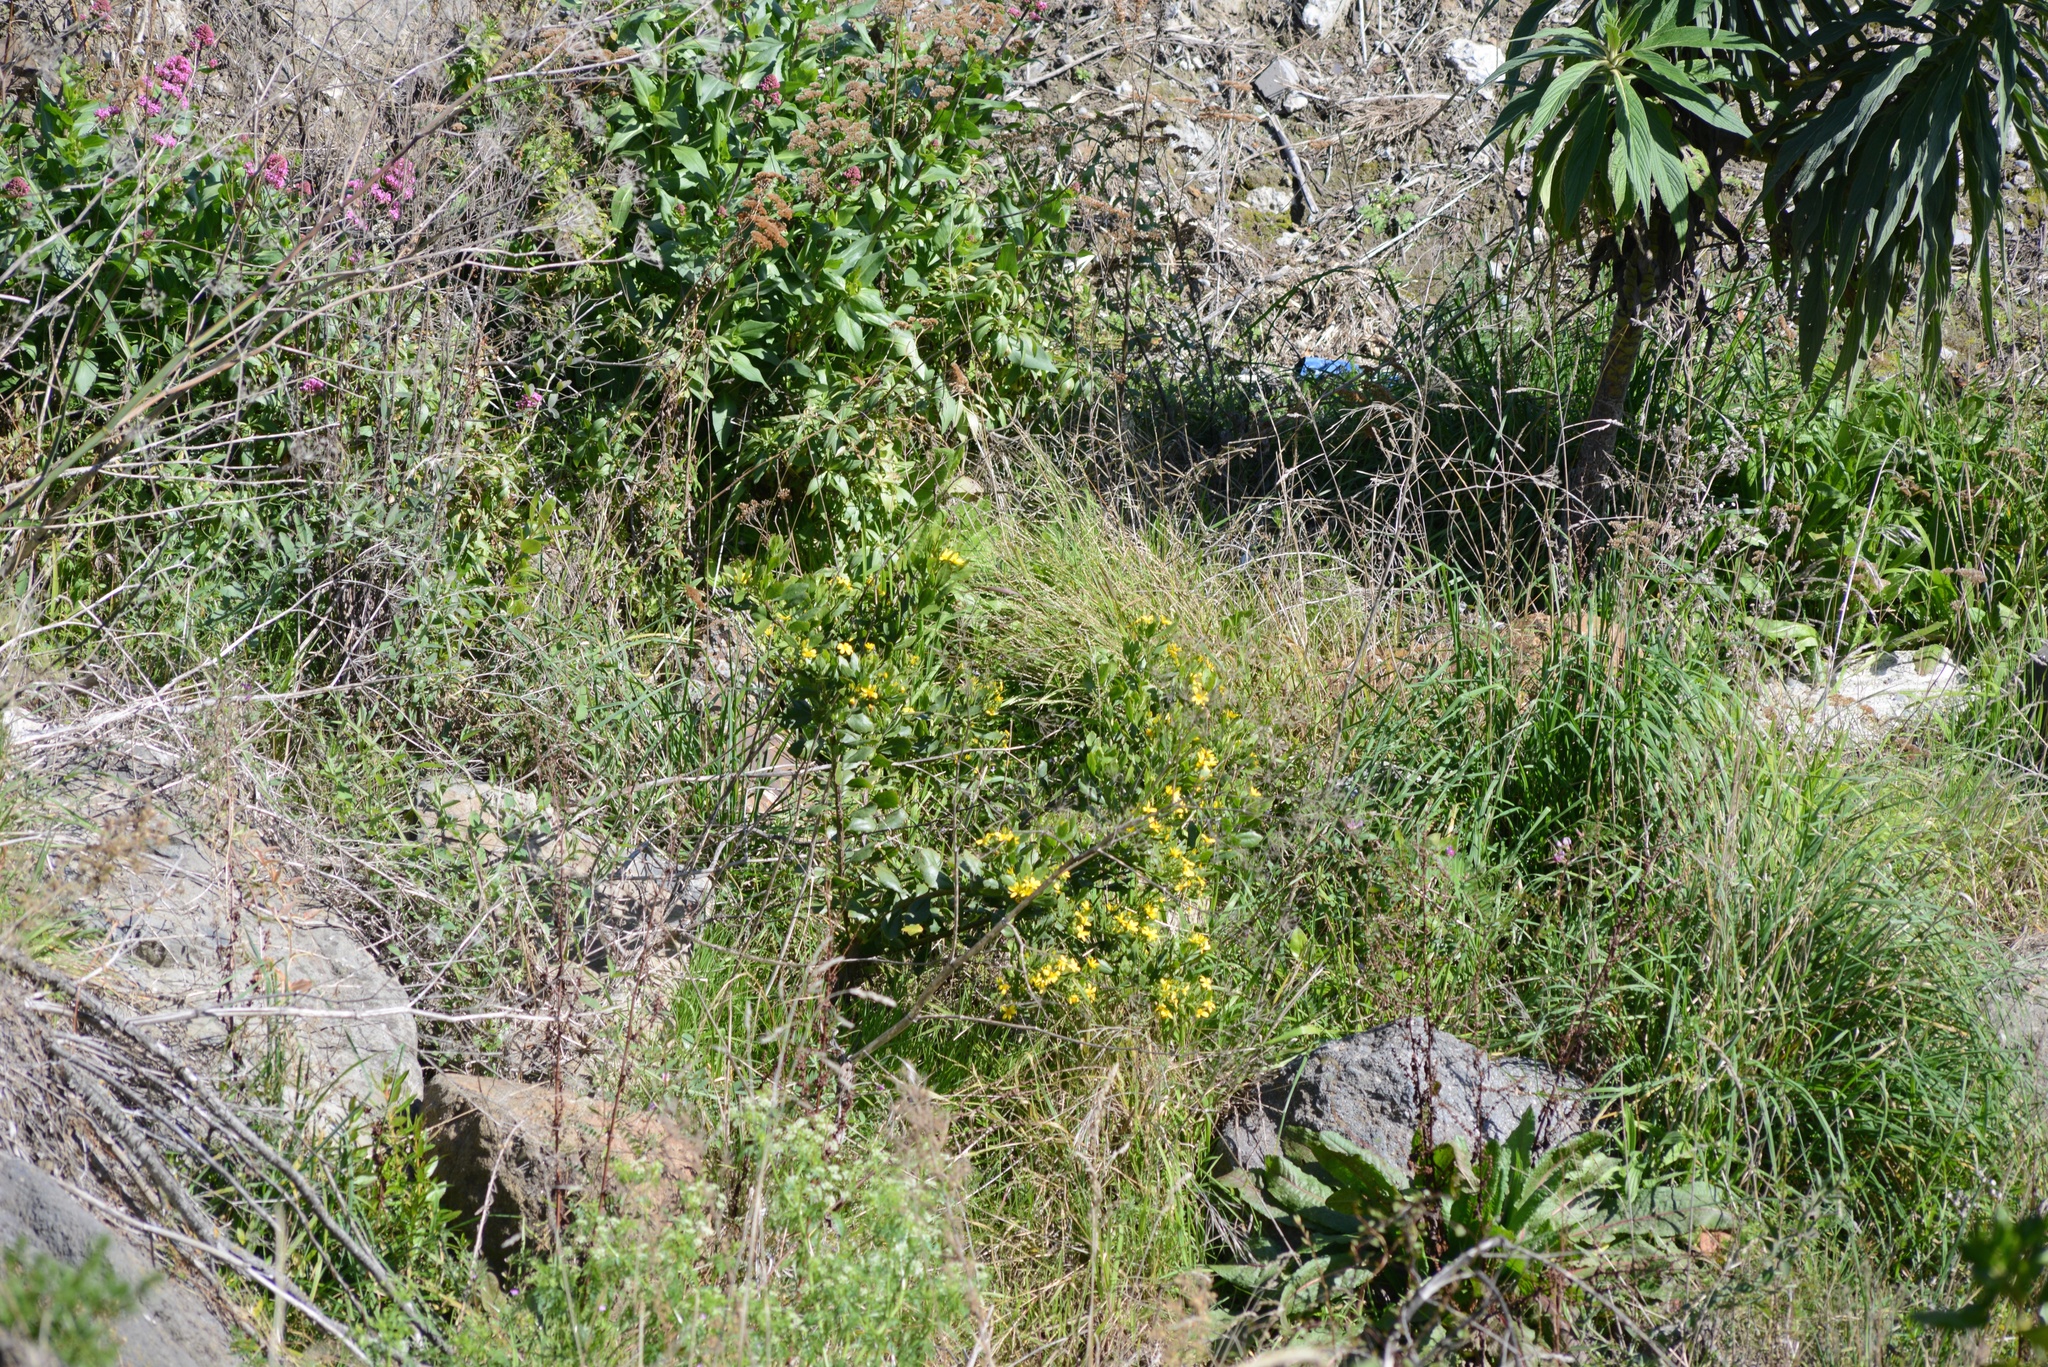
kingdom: Plantae
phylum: Tracheophyta
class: Magnoliopsida
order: Asterales
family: Asteraceae
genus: Osteospermum
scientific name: Osteospermum moniliferum
